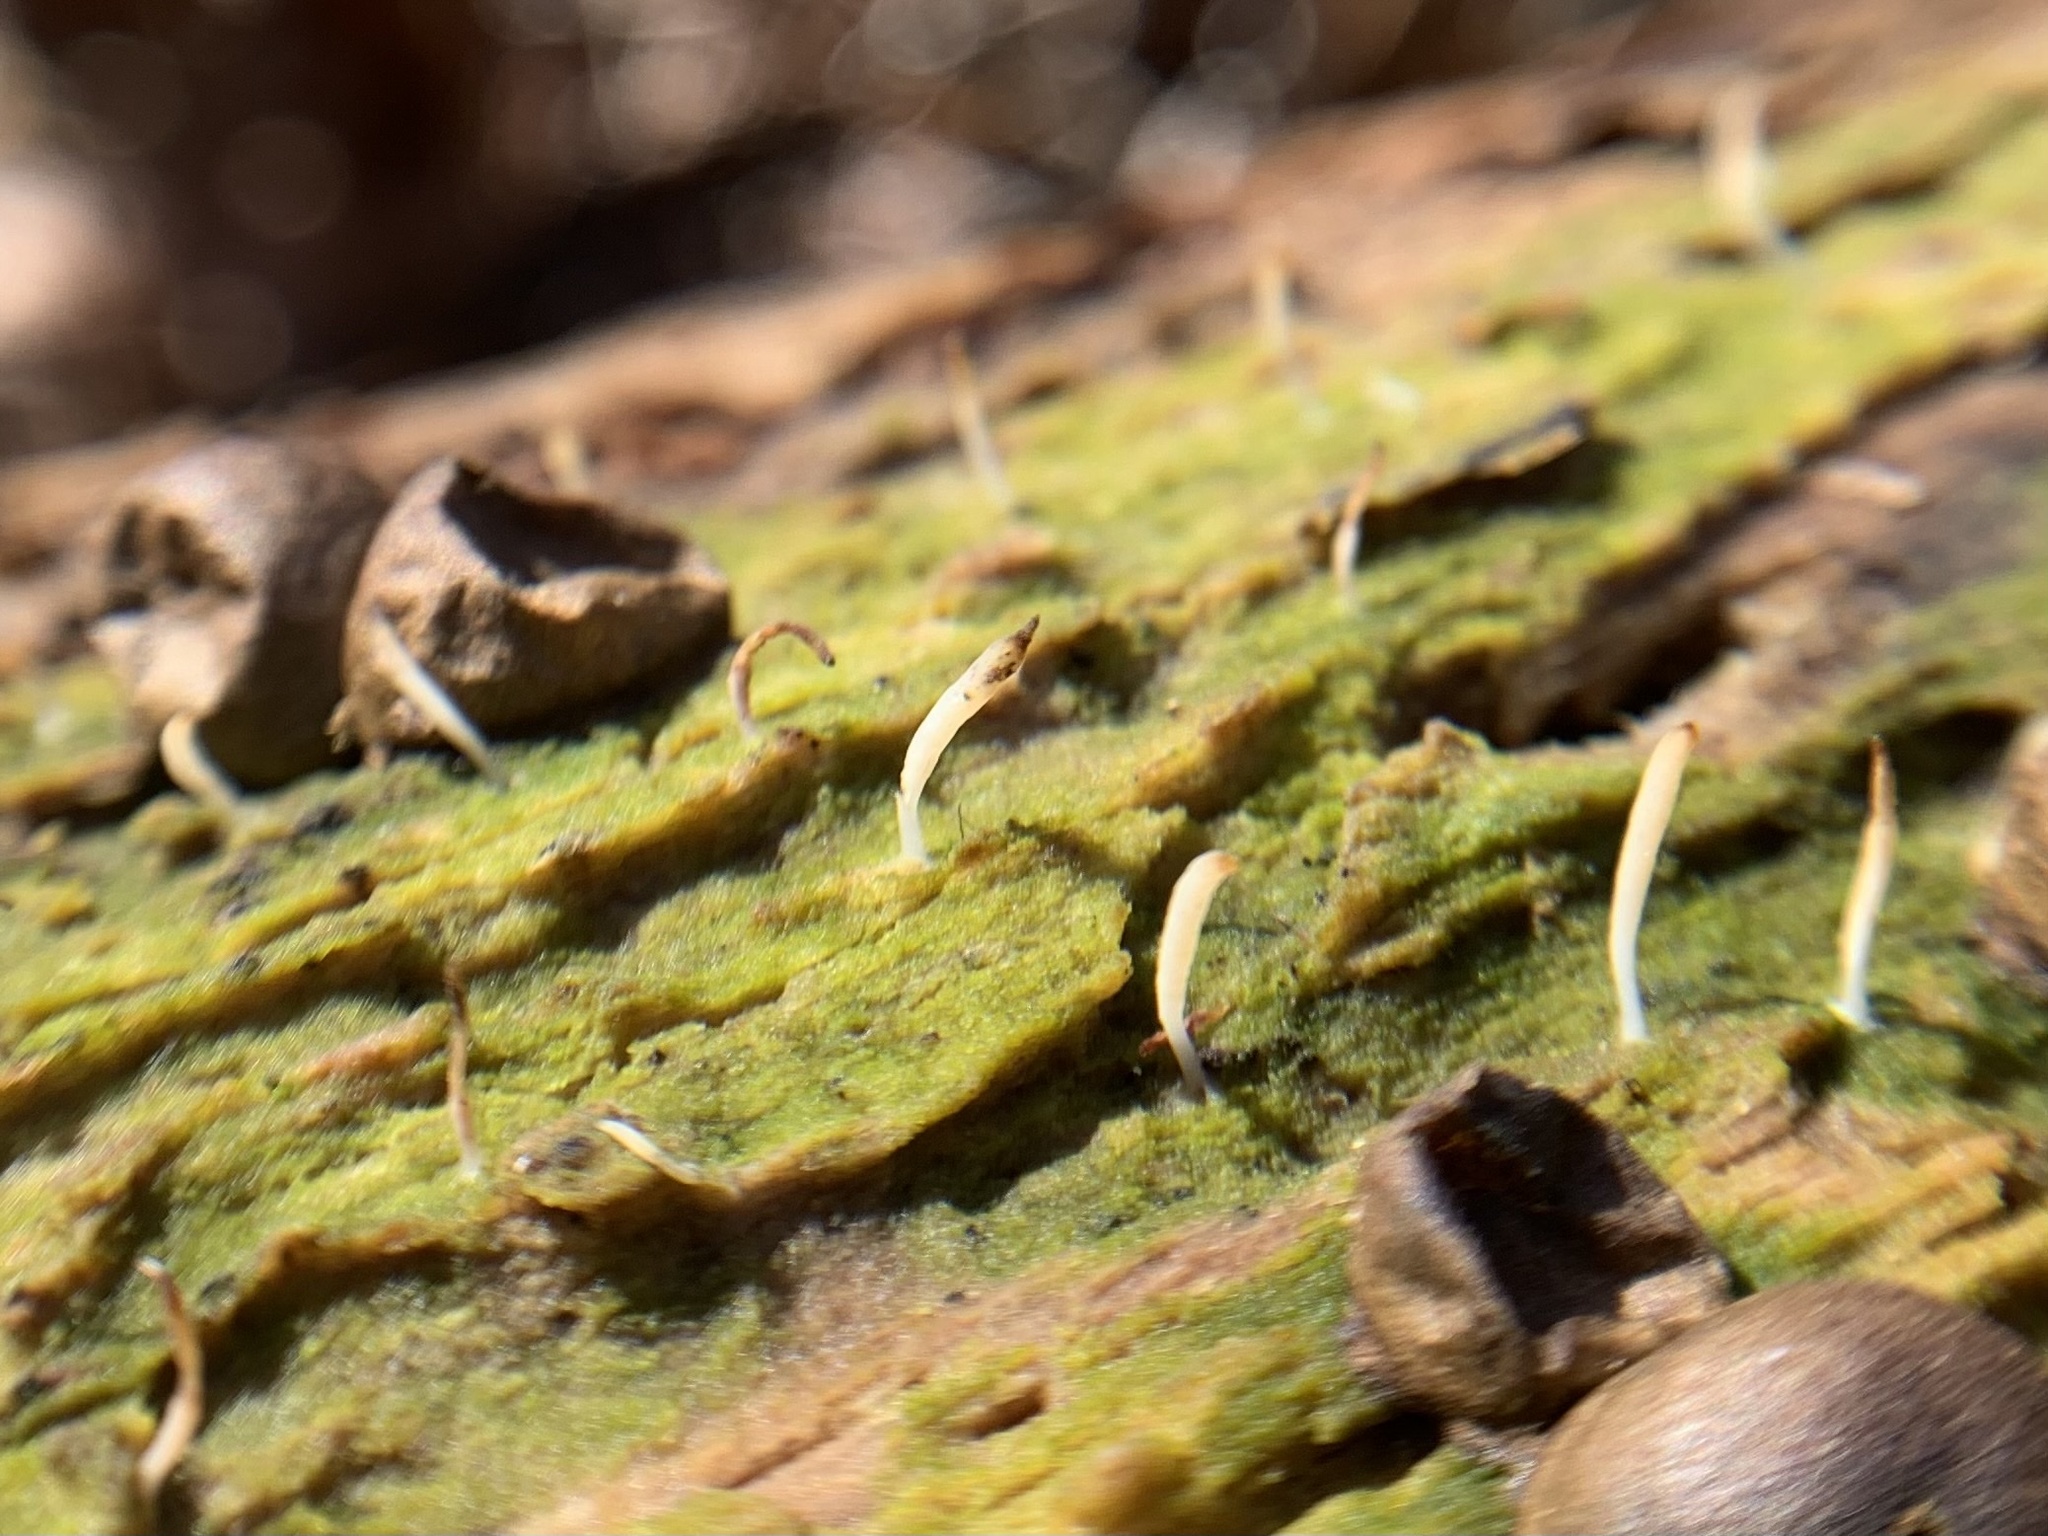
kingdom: Fungi
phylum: Basidiomycota
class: Agaricomycetes
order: Cantharellales
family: Hydnaceae
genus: Multiclavula
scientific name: Multiclavula mucida
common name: White green-algae coral
